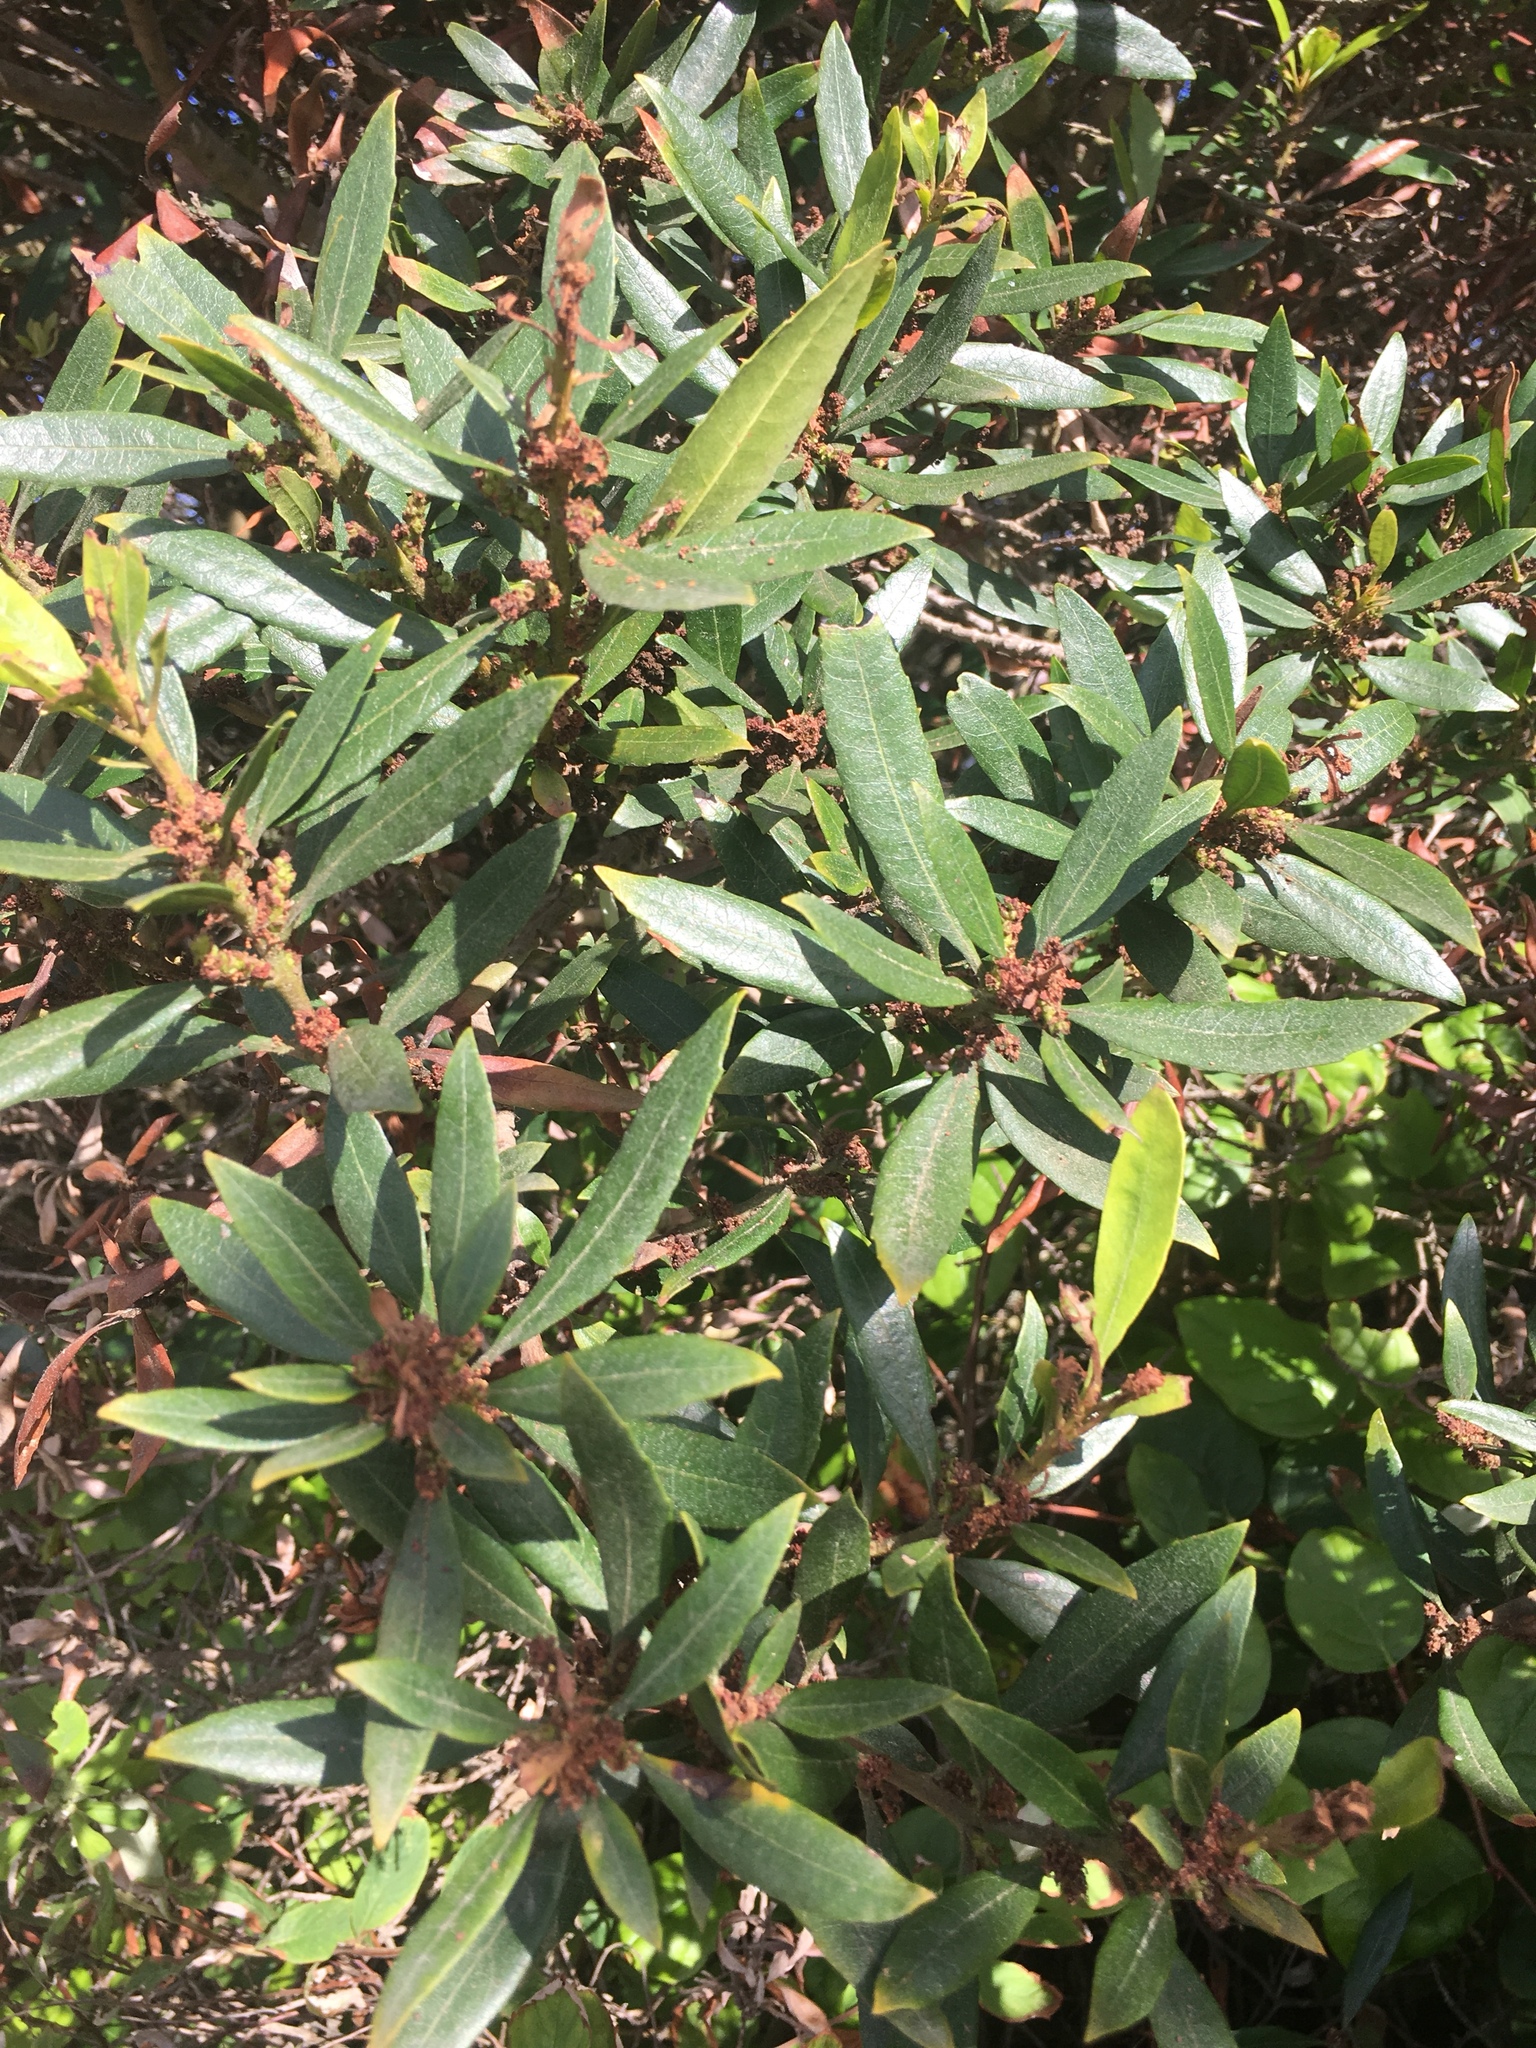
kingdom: Plantae
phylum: Tracheophyta
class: Magnoliopsida
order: Fagales
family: Myricaceae
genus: Morella
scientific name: Morella californica
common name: California wax-myrtle
